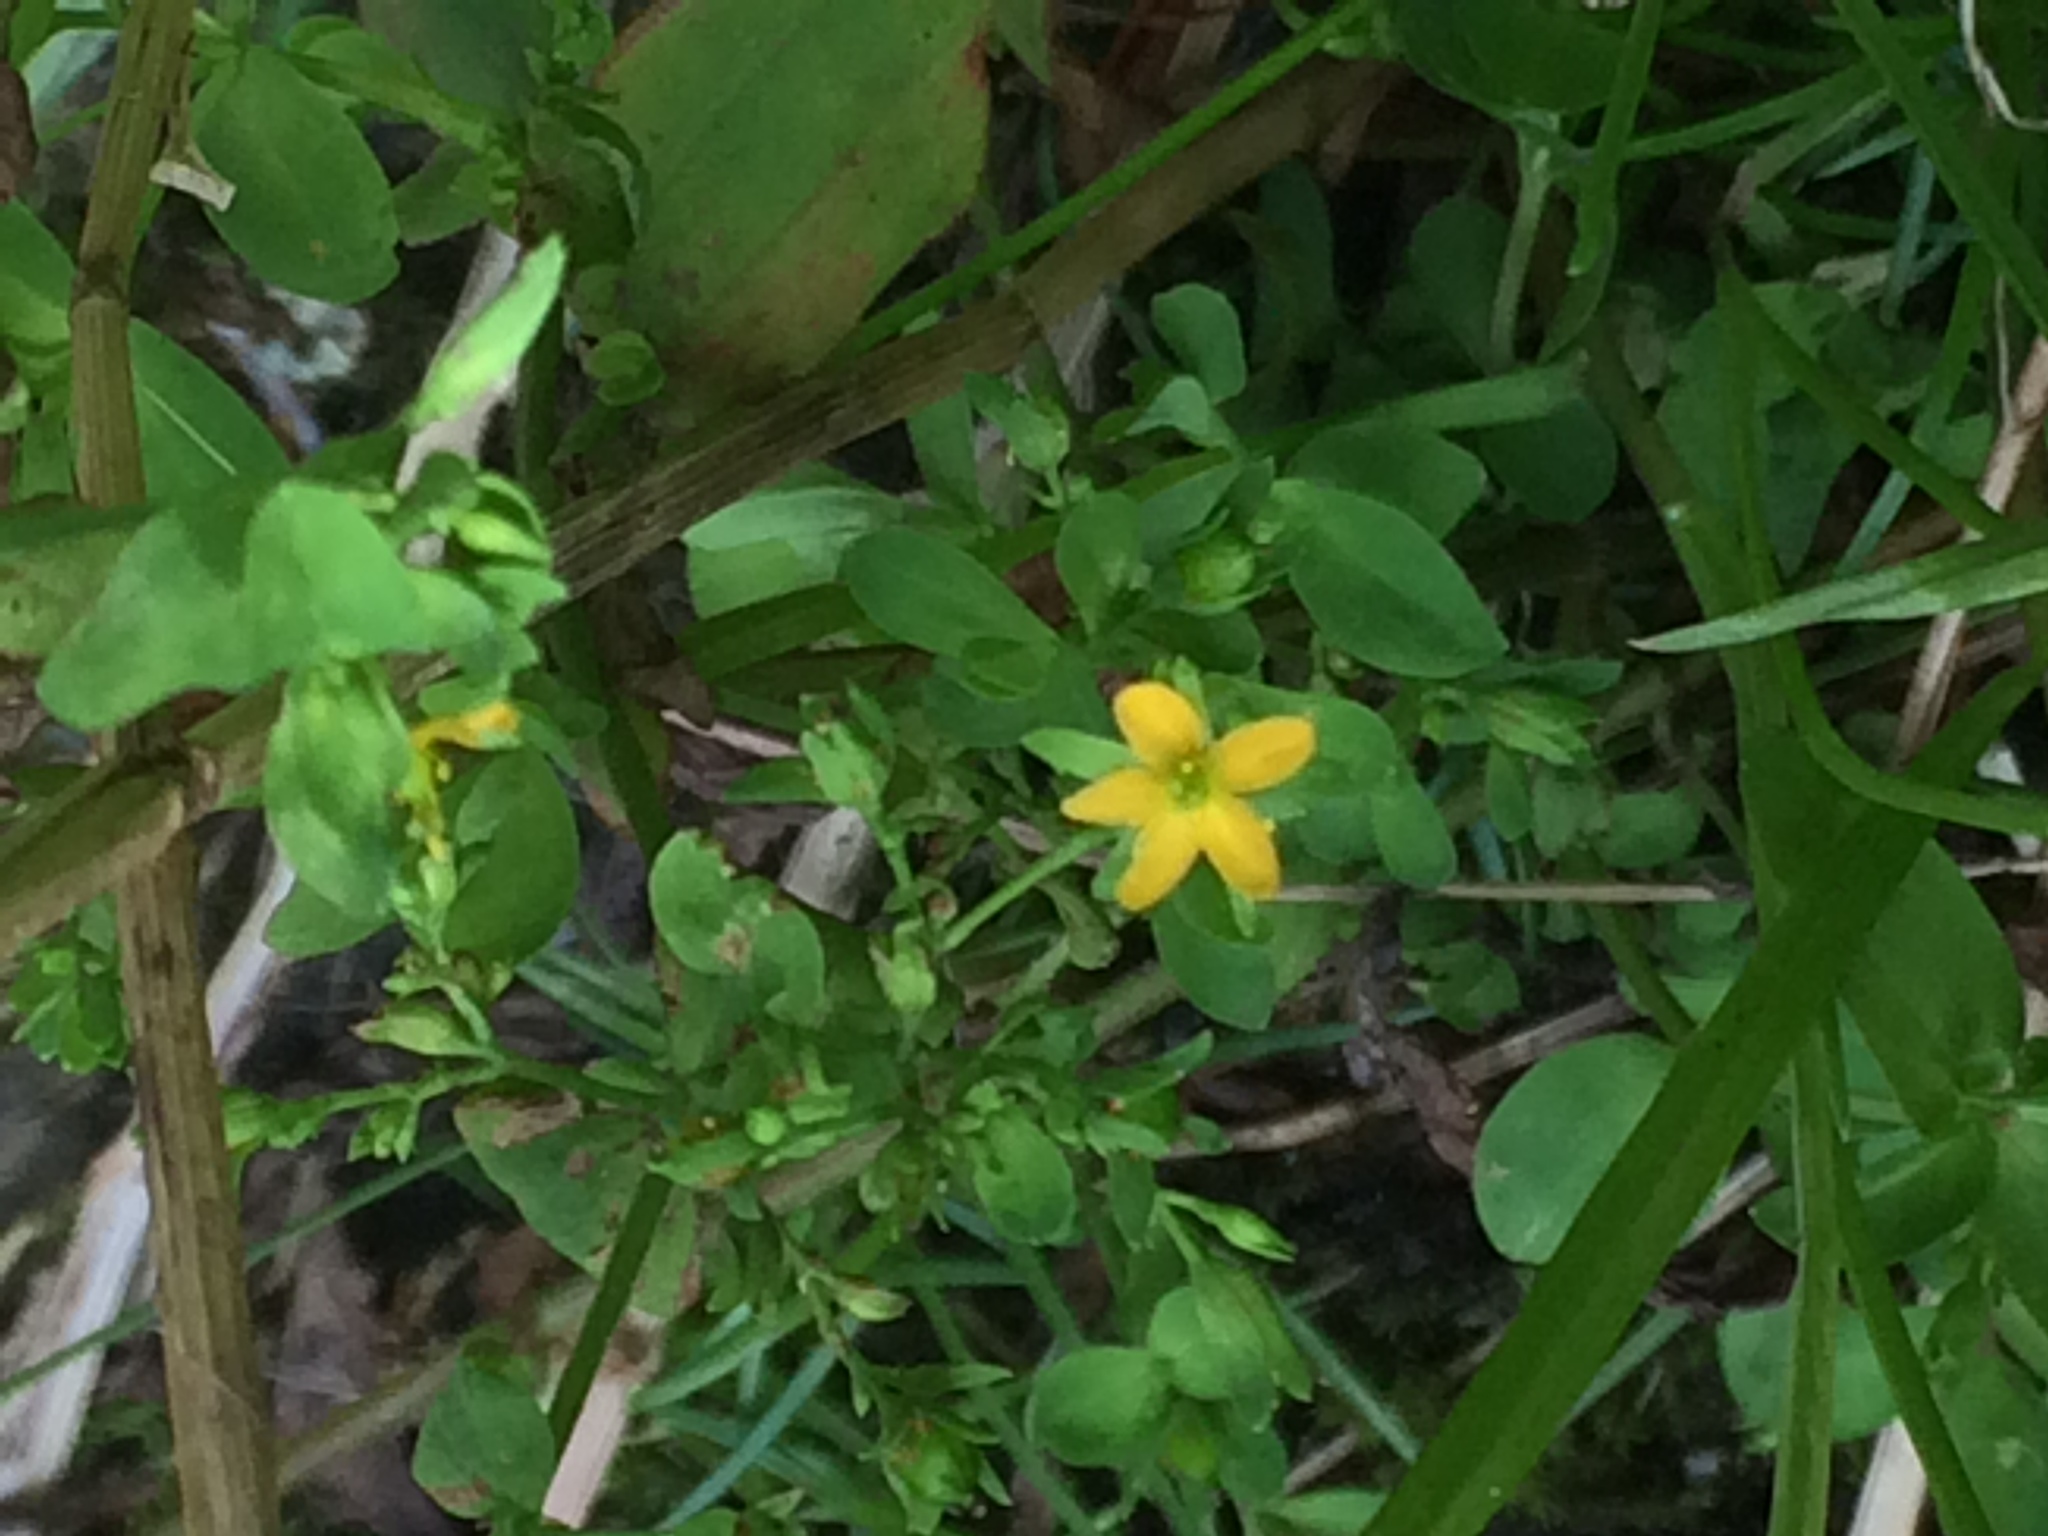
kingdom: Plantae
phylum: Tracheophyta
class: Magnoliopsida
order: Malpighiales
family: Hypericaceae
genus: Hypericum
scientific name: Hypericum mutilum
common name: Dwarf st. john's-wort
